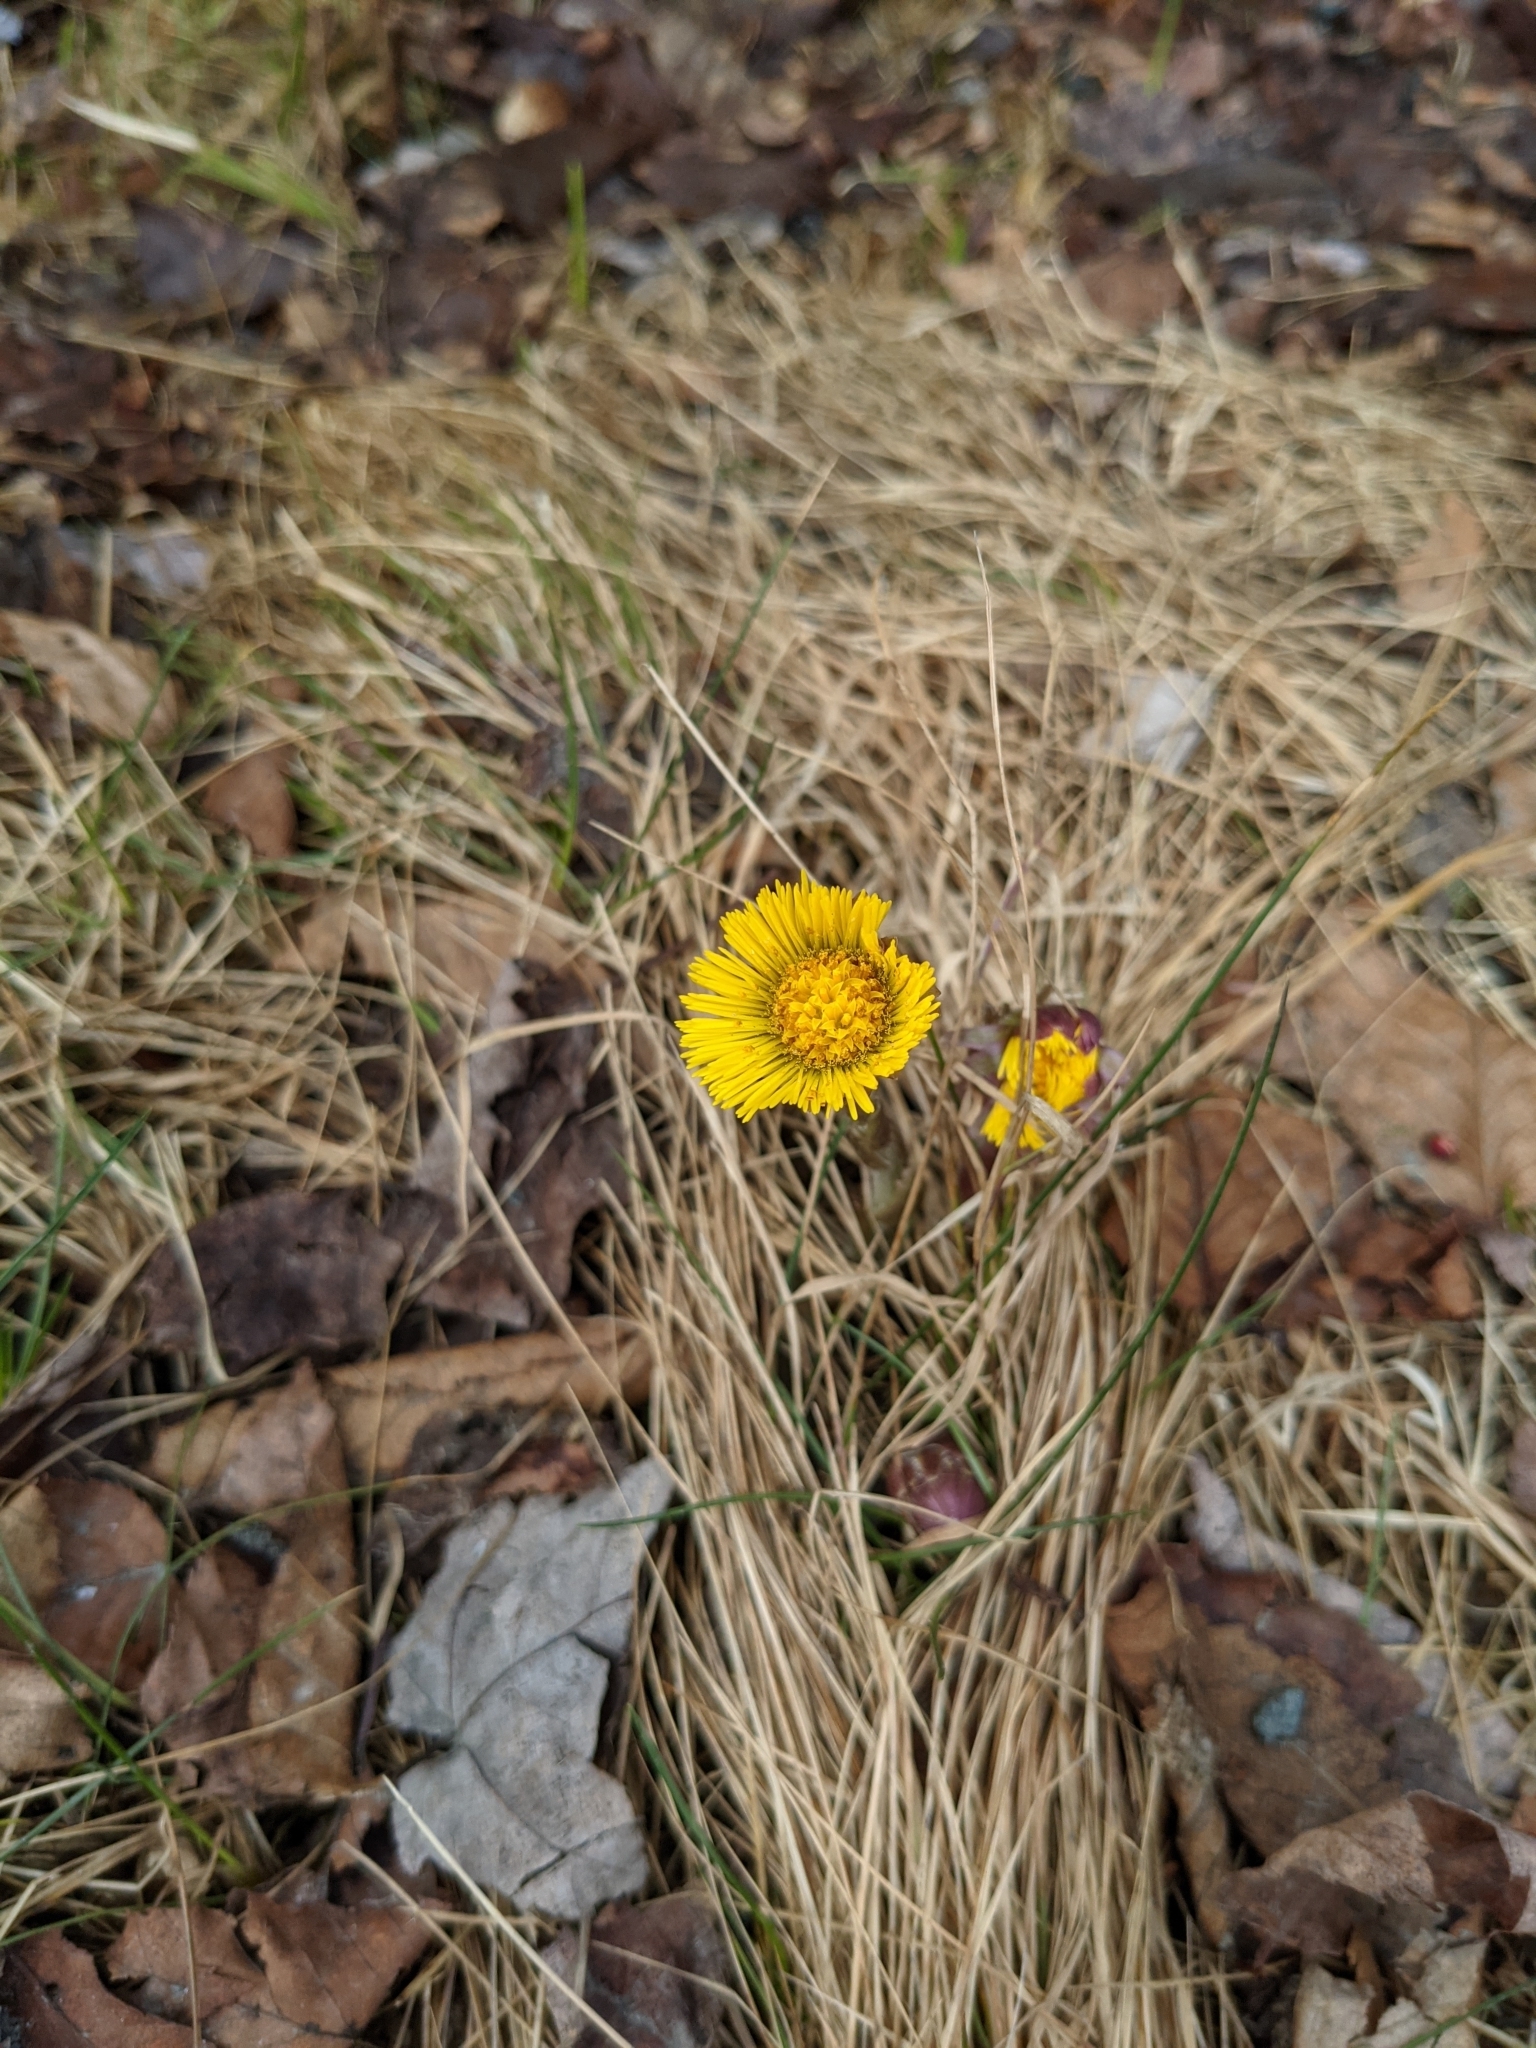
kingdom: Plantae
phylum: Tracheophyta
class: Magnoliopsida
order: Asterales
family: Asteraceae
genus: Tussilago
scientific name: Tussilago farfara
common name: Coltsfoot
